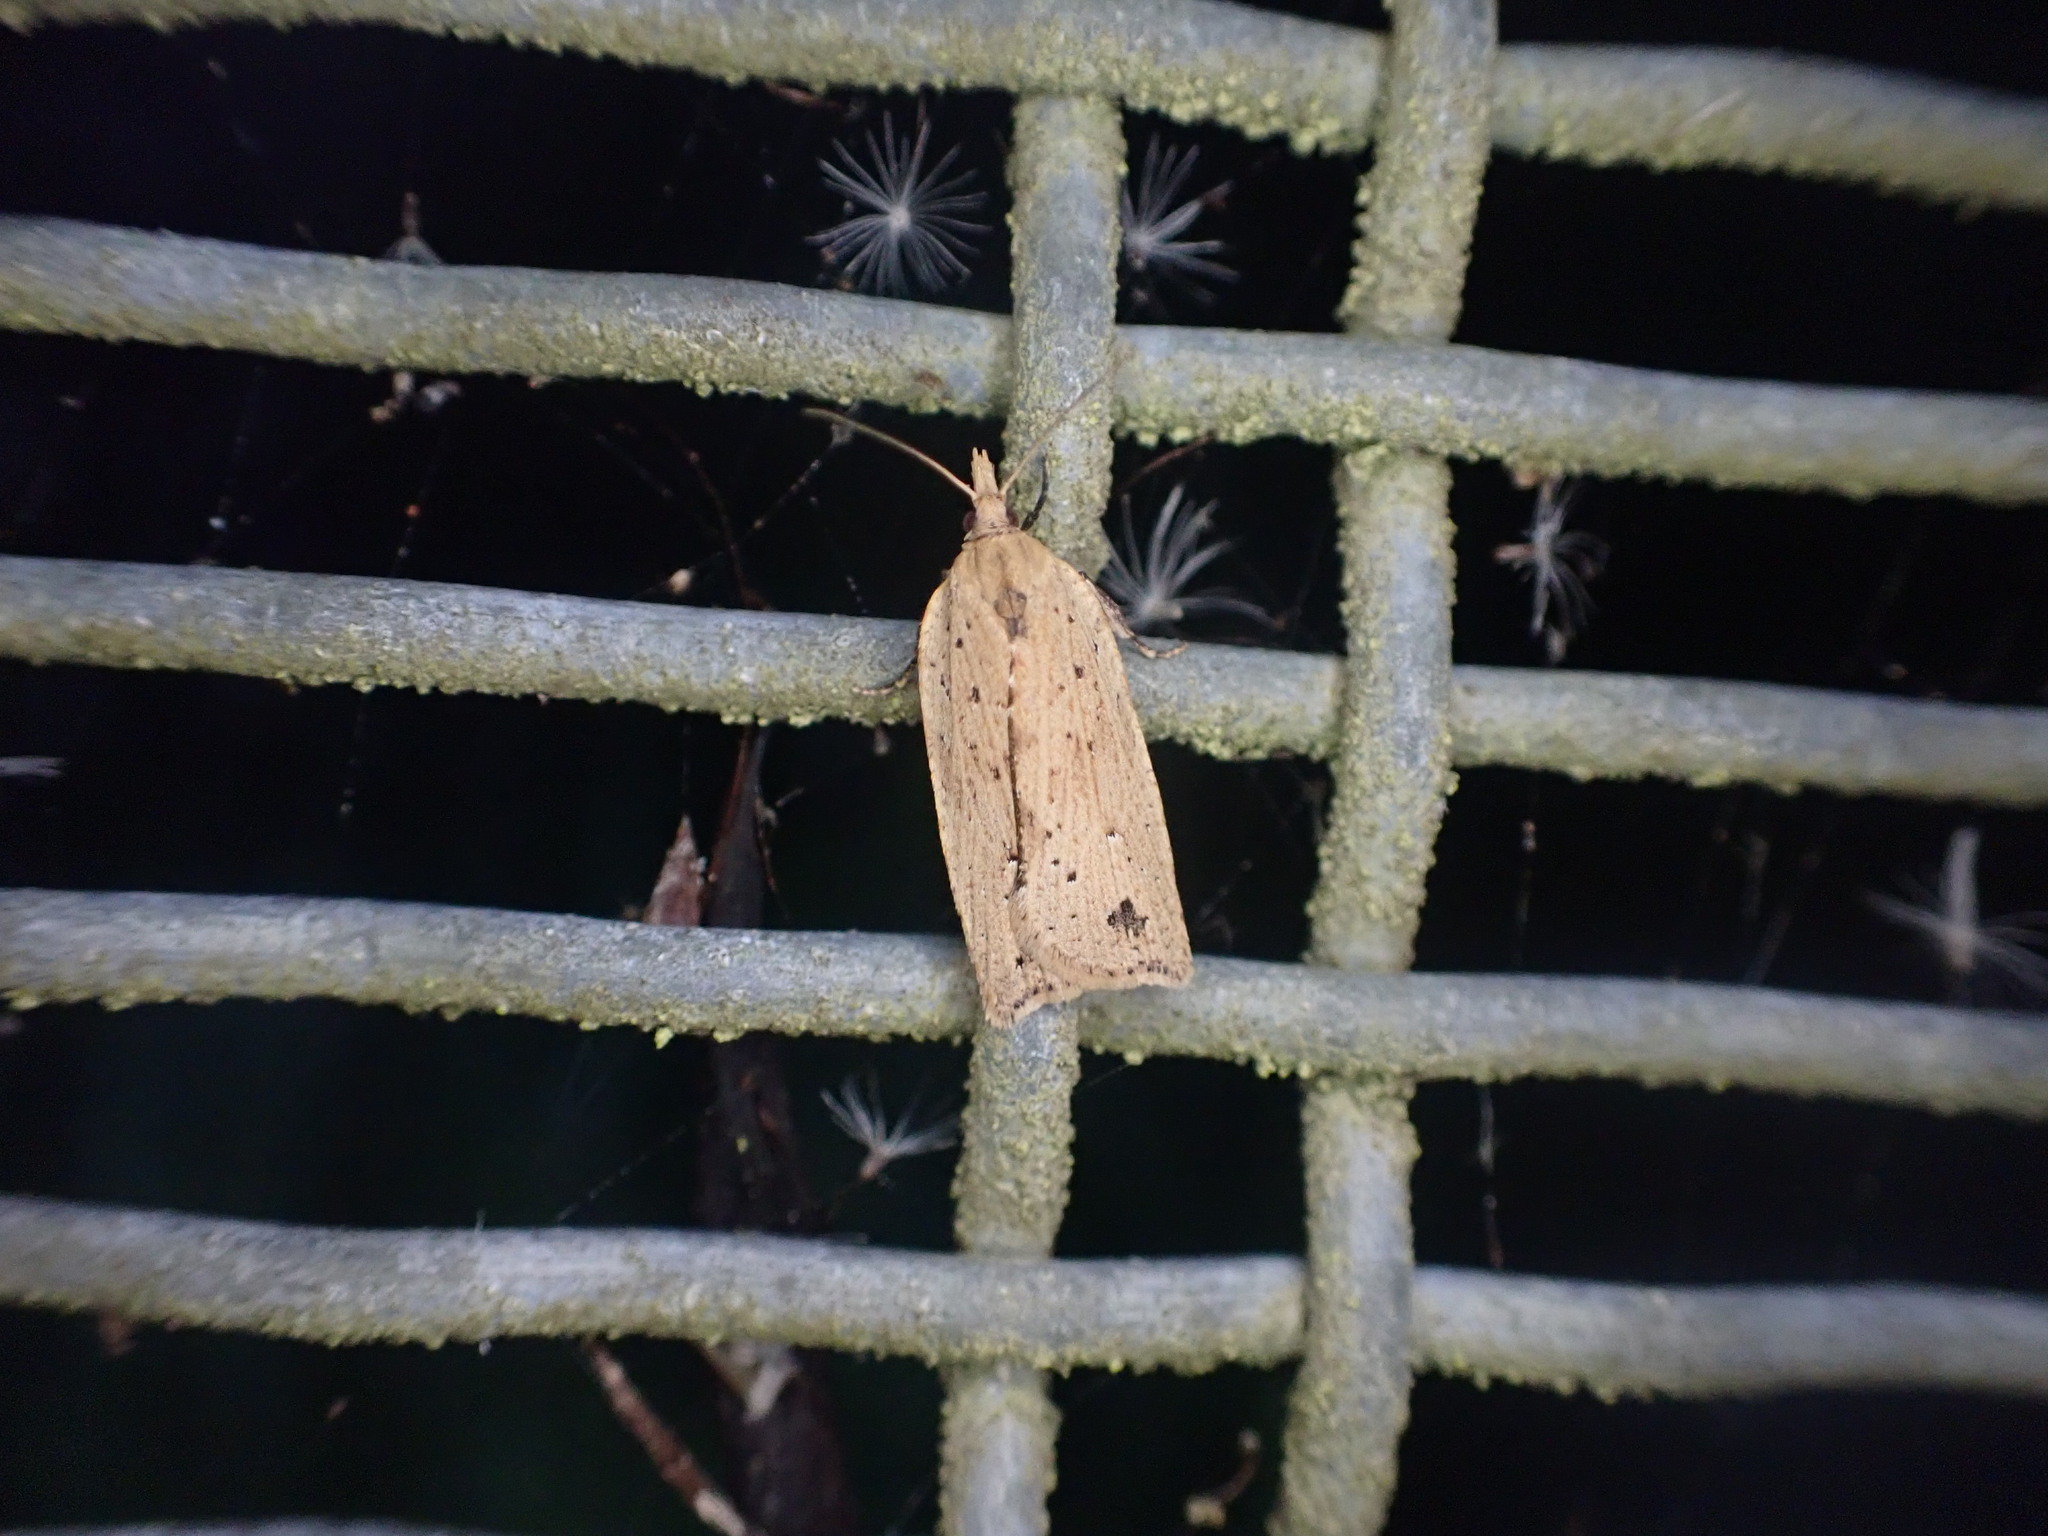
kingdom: Animalia
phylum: Arthropoda
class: Insecta
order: Lepidoptera
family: Tortricidae
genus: Planotortrix
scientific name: Planotortrix notophaea
